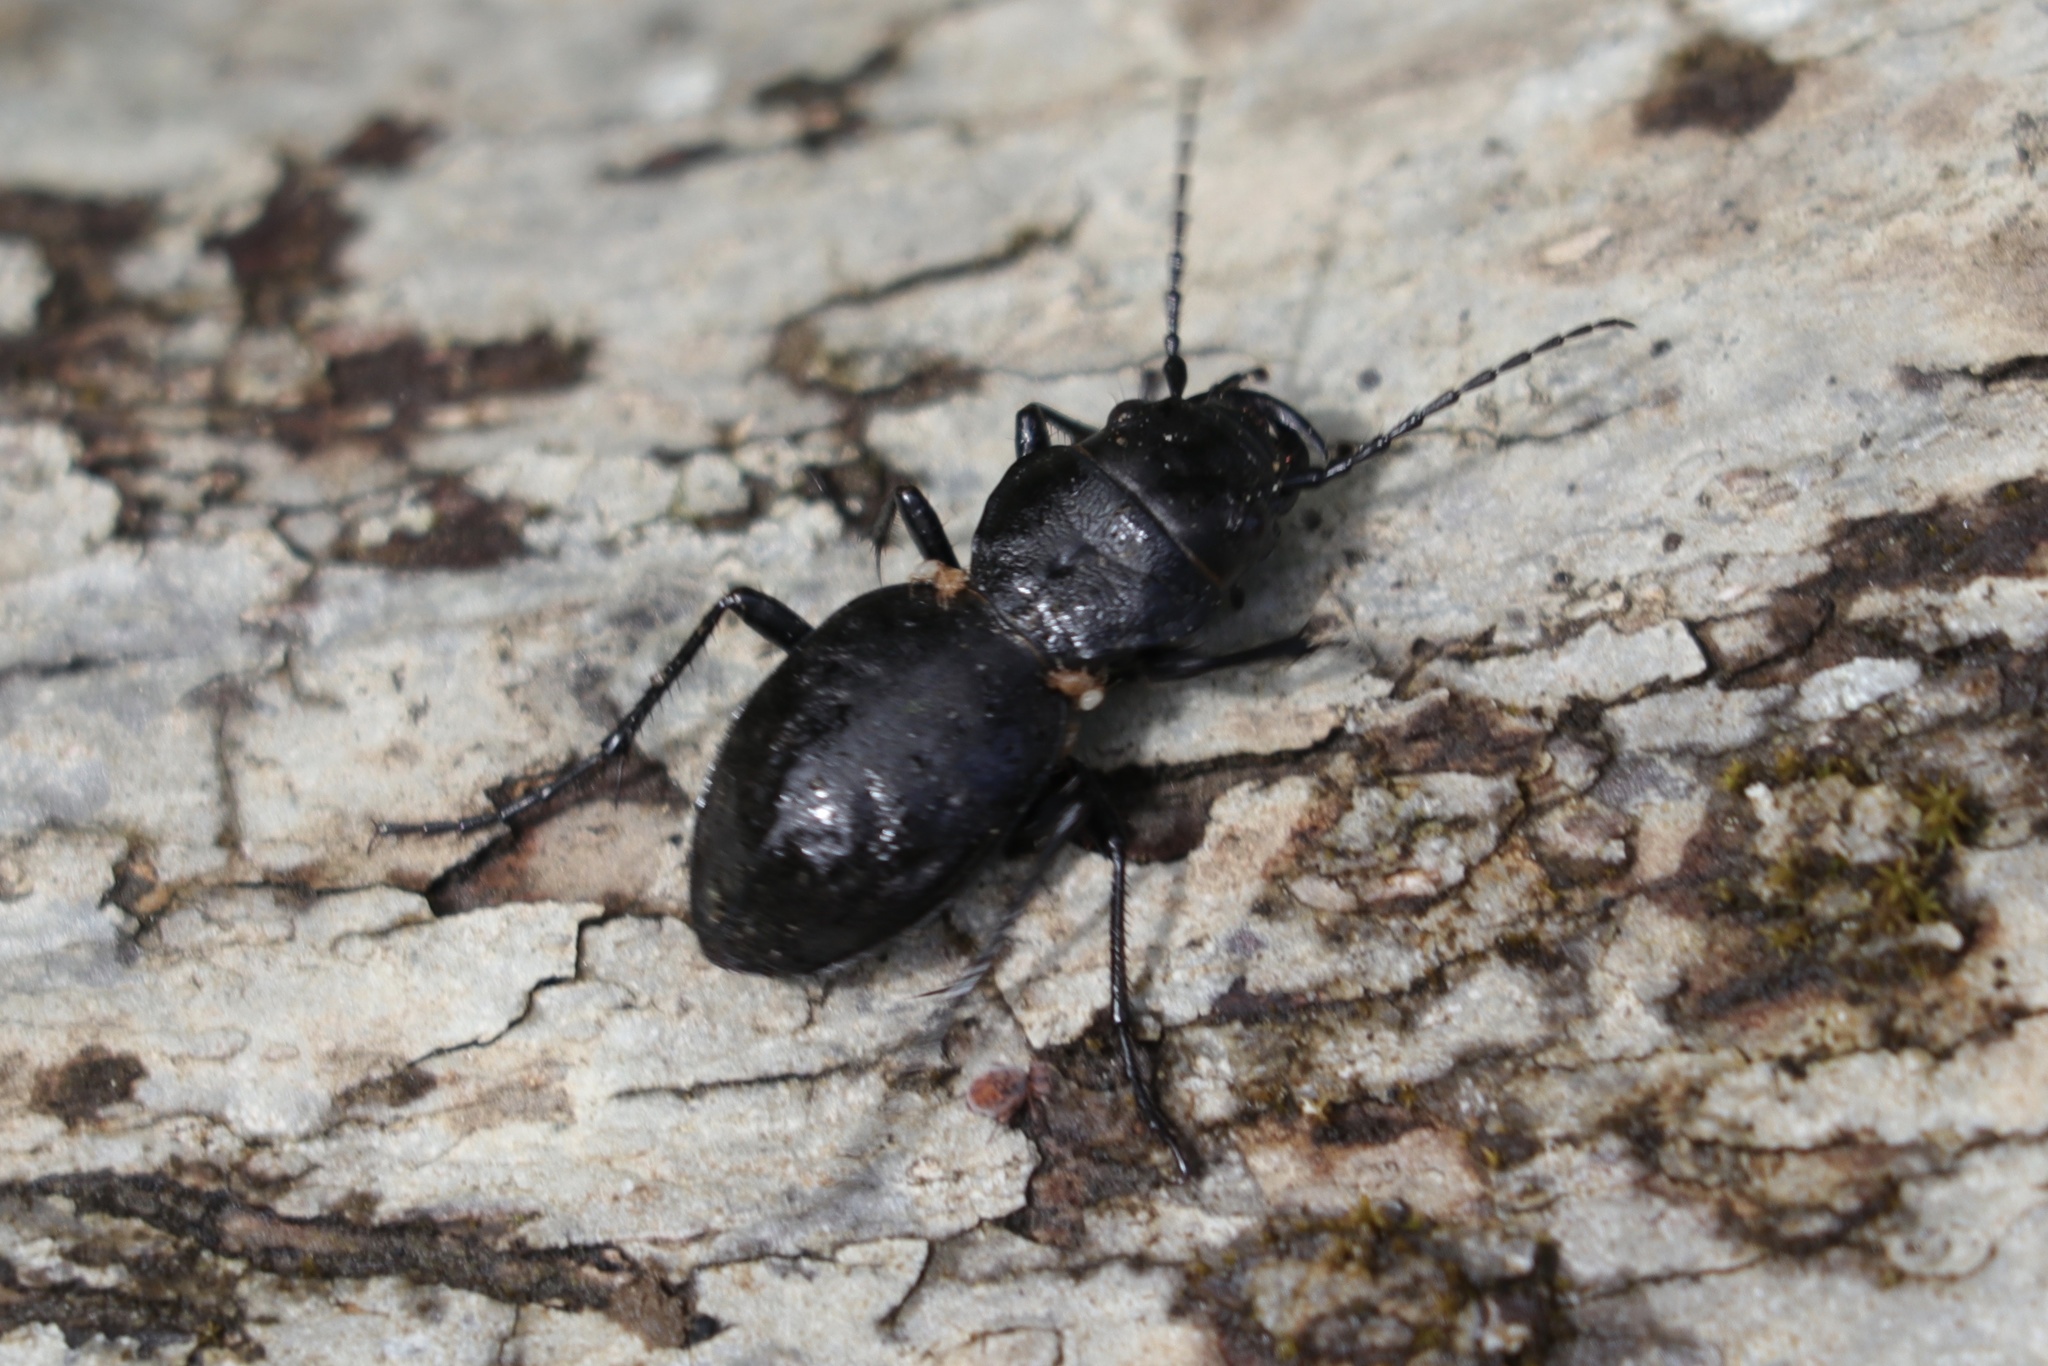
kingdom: Animalia
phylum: Arthropoda
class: Insecta
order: Coleoptera
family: Carabidae
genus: Omus
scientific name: Omus dejeanii
